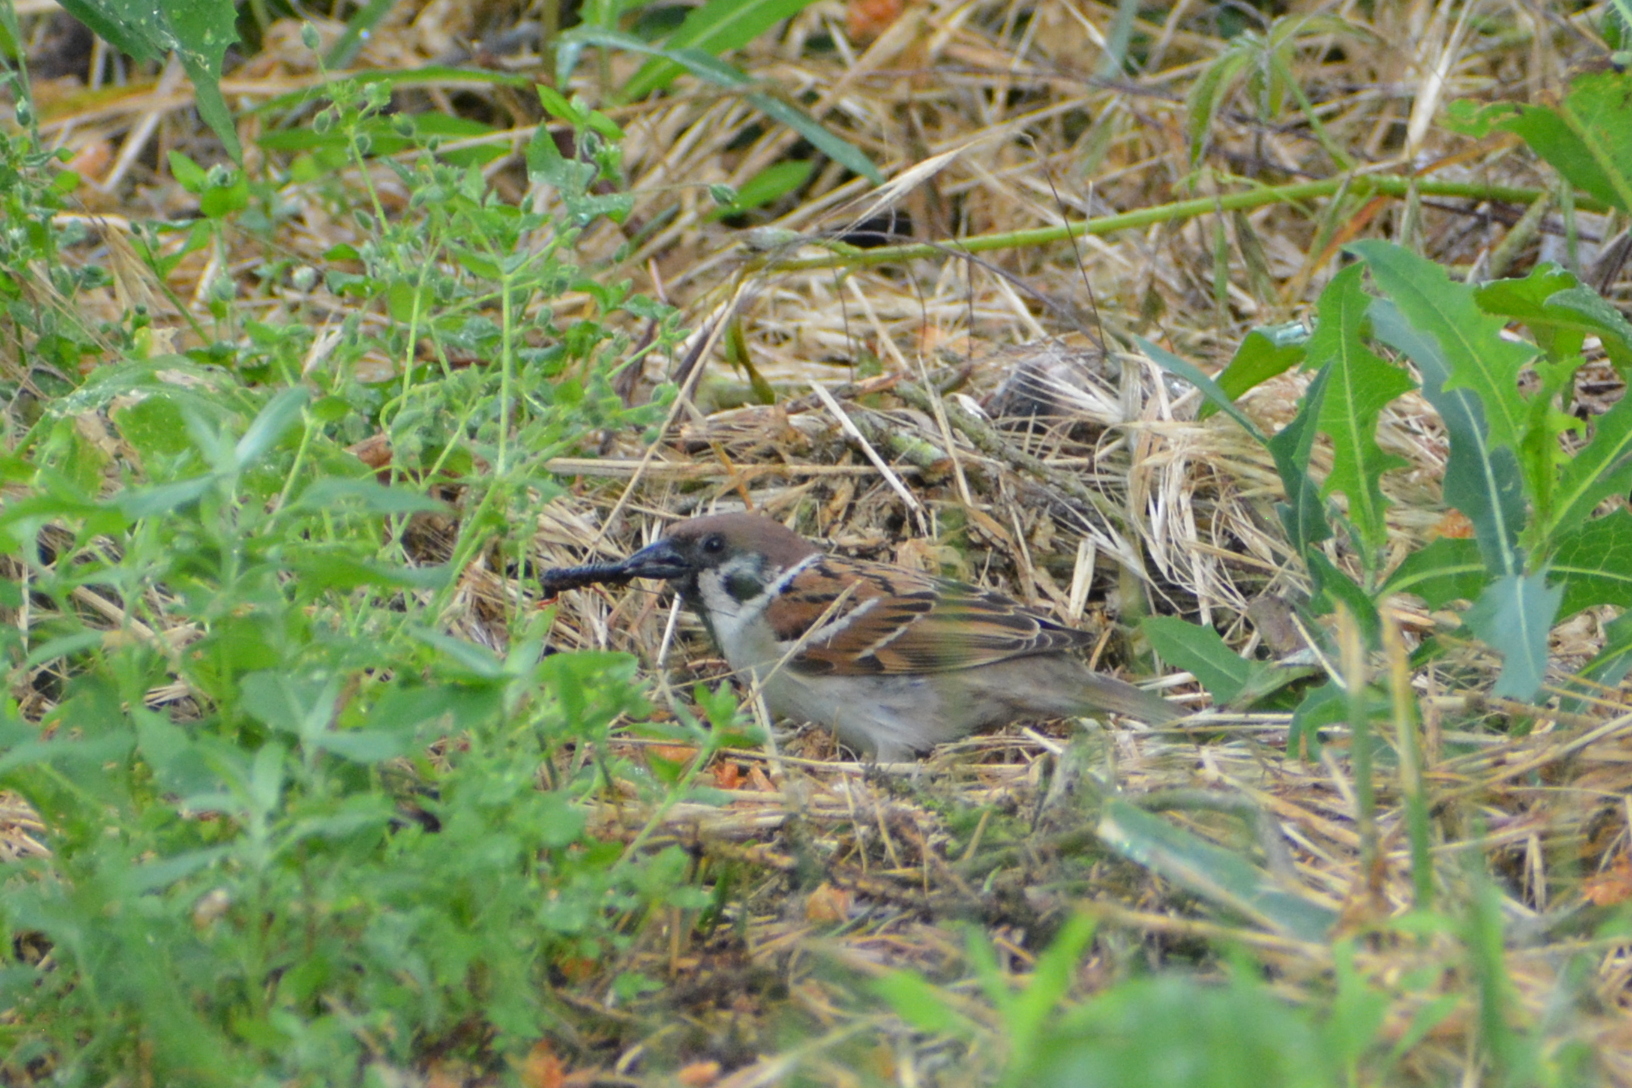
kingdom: Animalia
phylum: Chordata
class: Aves
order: Passeriformes
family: Passeridae
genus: Passer
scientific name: Passer montanus
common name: Eurasian tree sparrow
